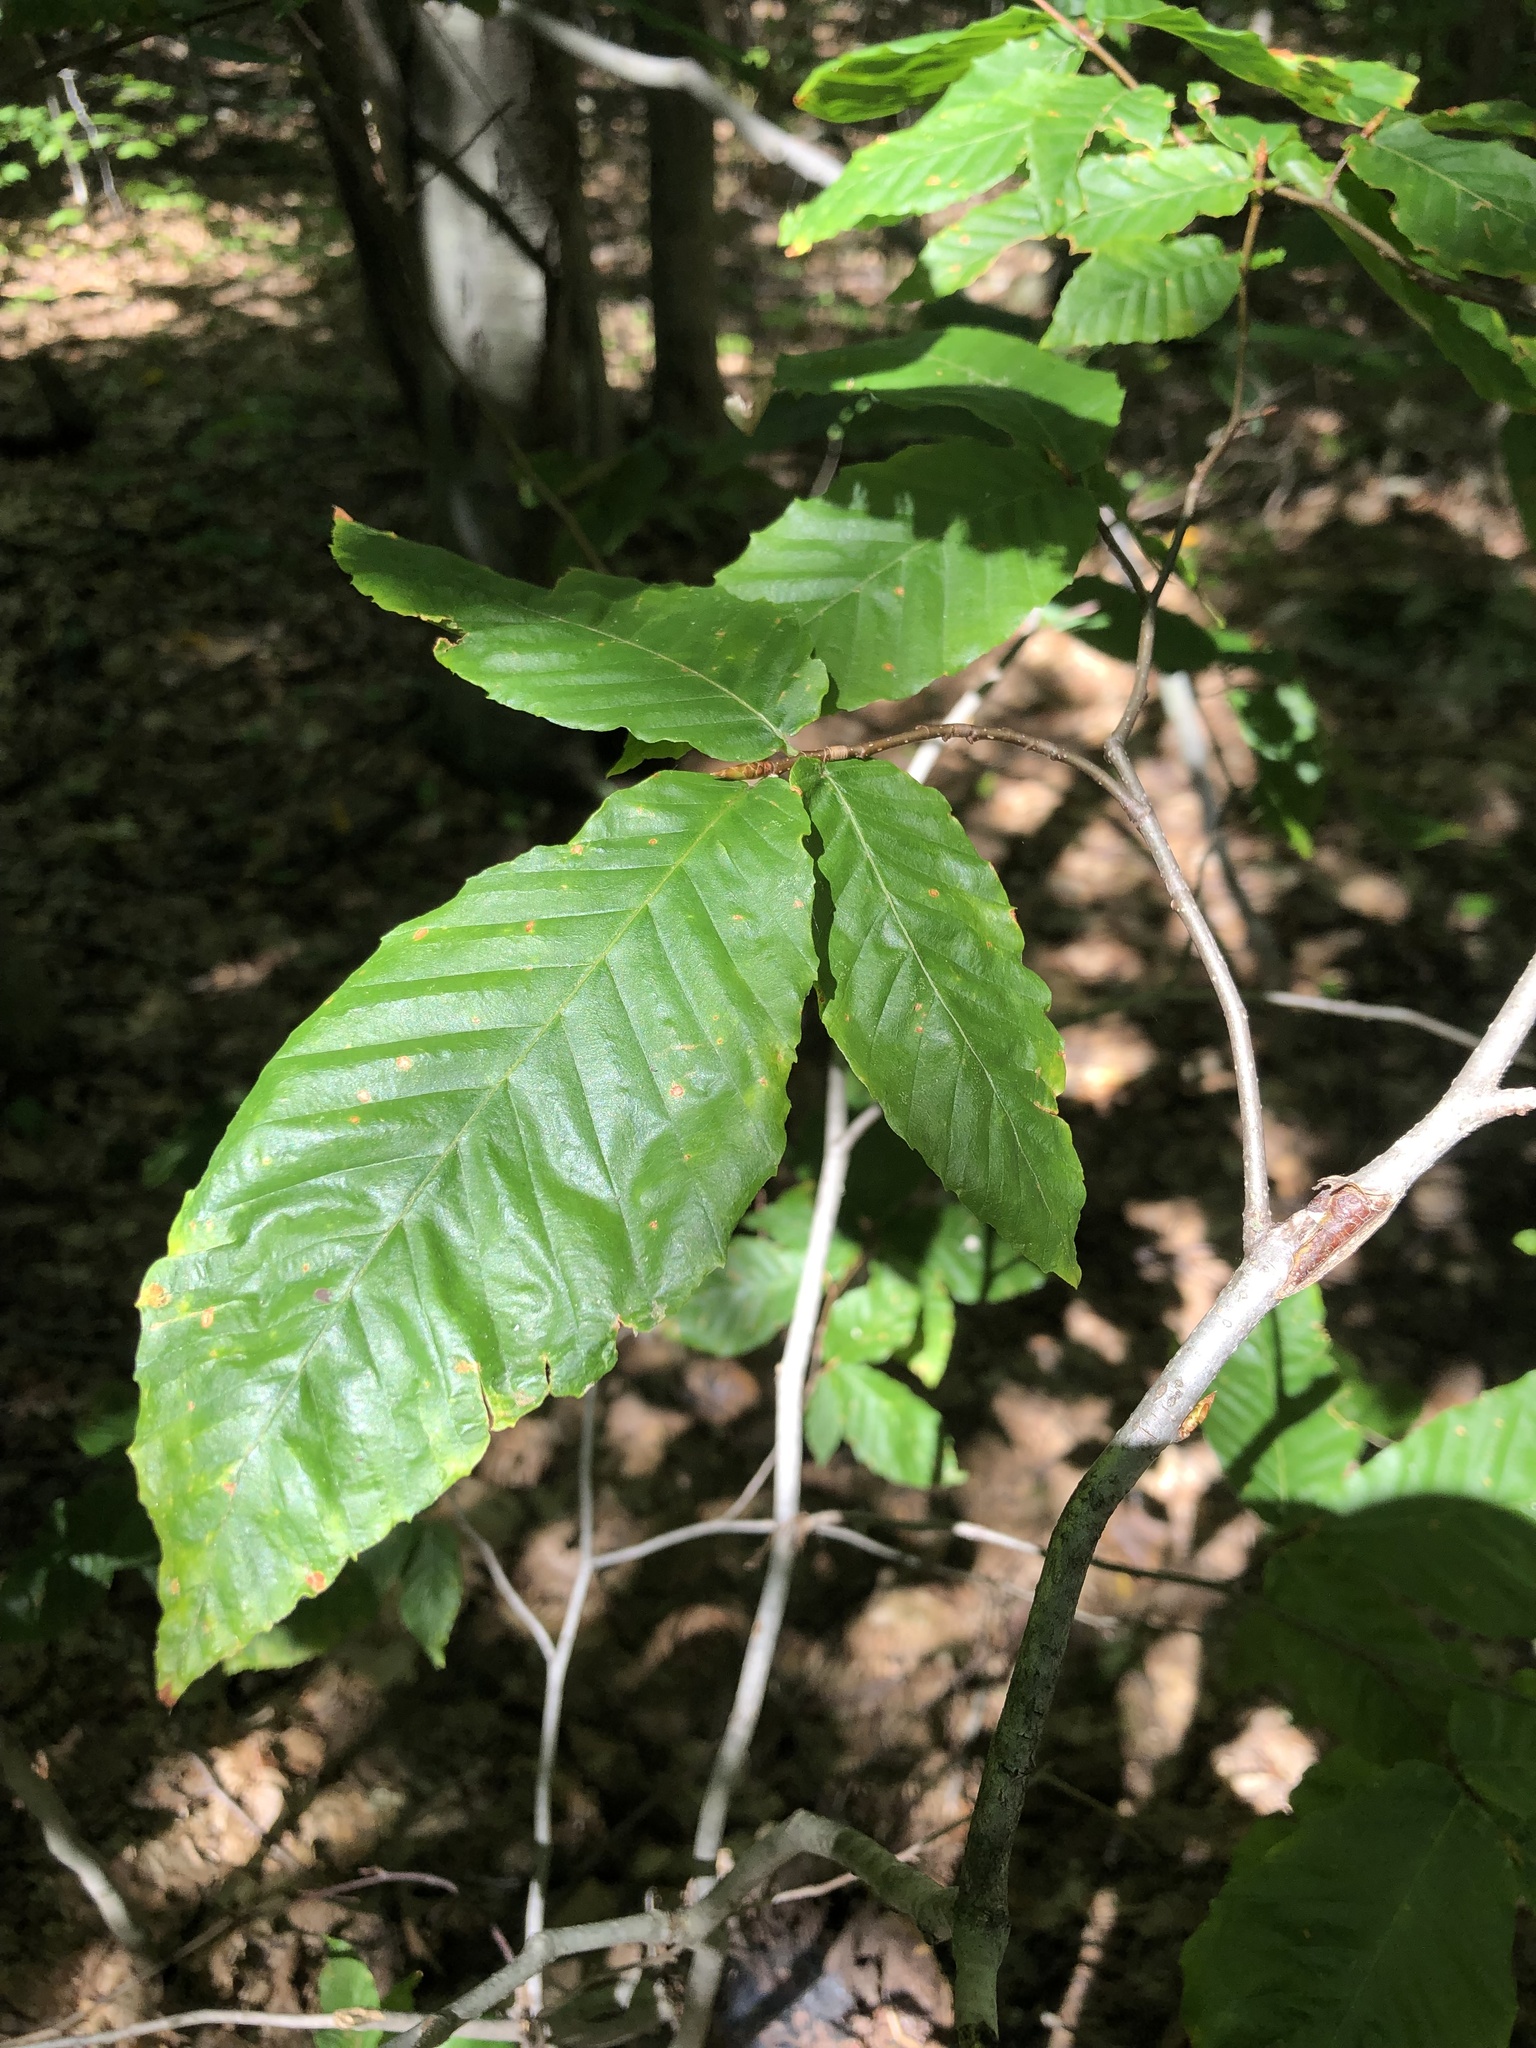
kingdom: Plantae
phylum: Tracheophyta
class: Magnoliopsida
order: Fagales
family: Fagaceae
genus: Fagus
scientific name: Fagus grandifolia
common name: American beech
